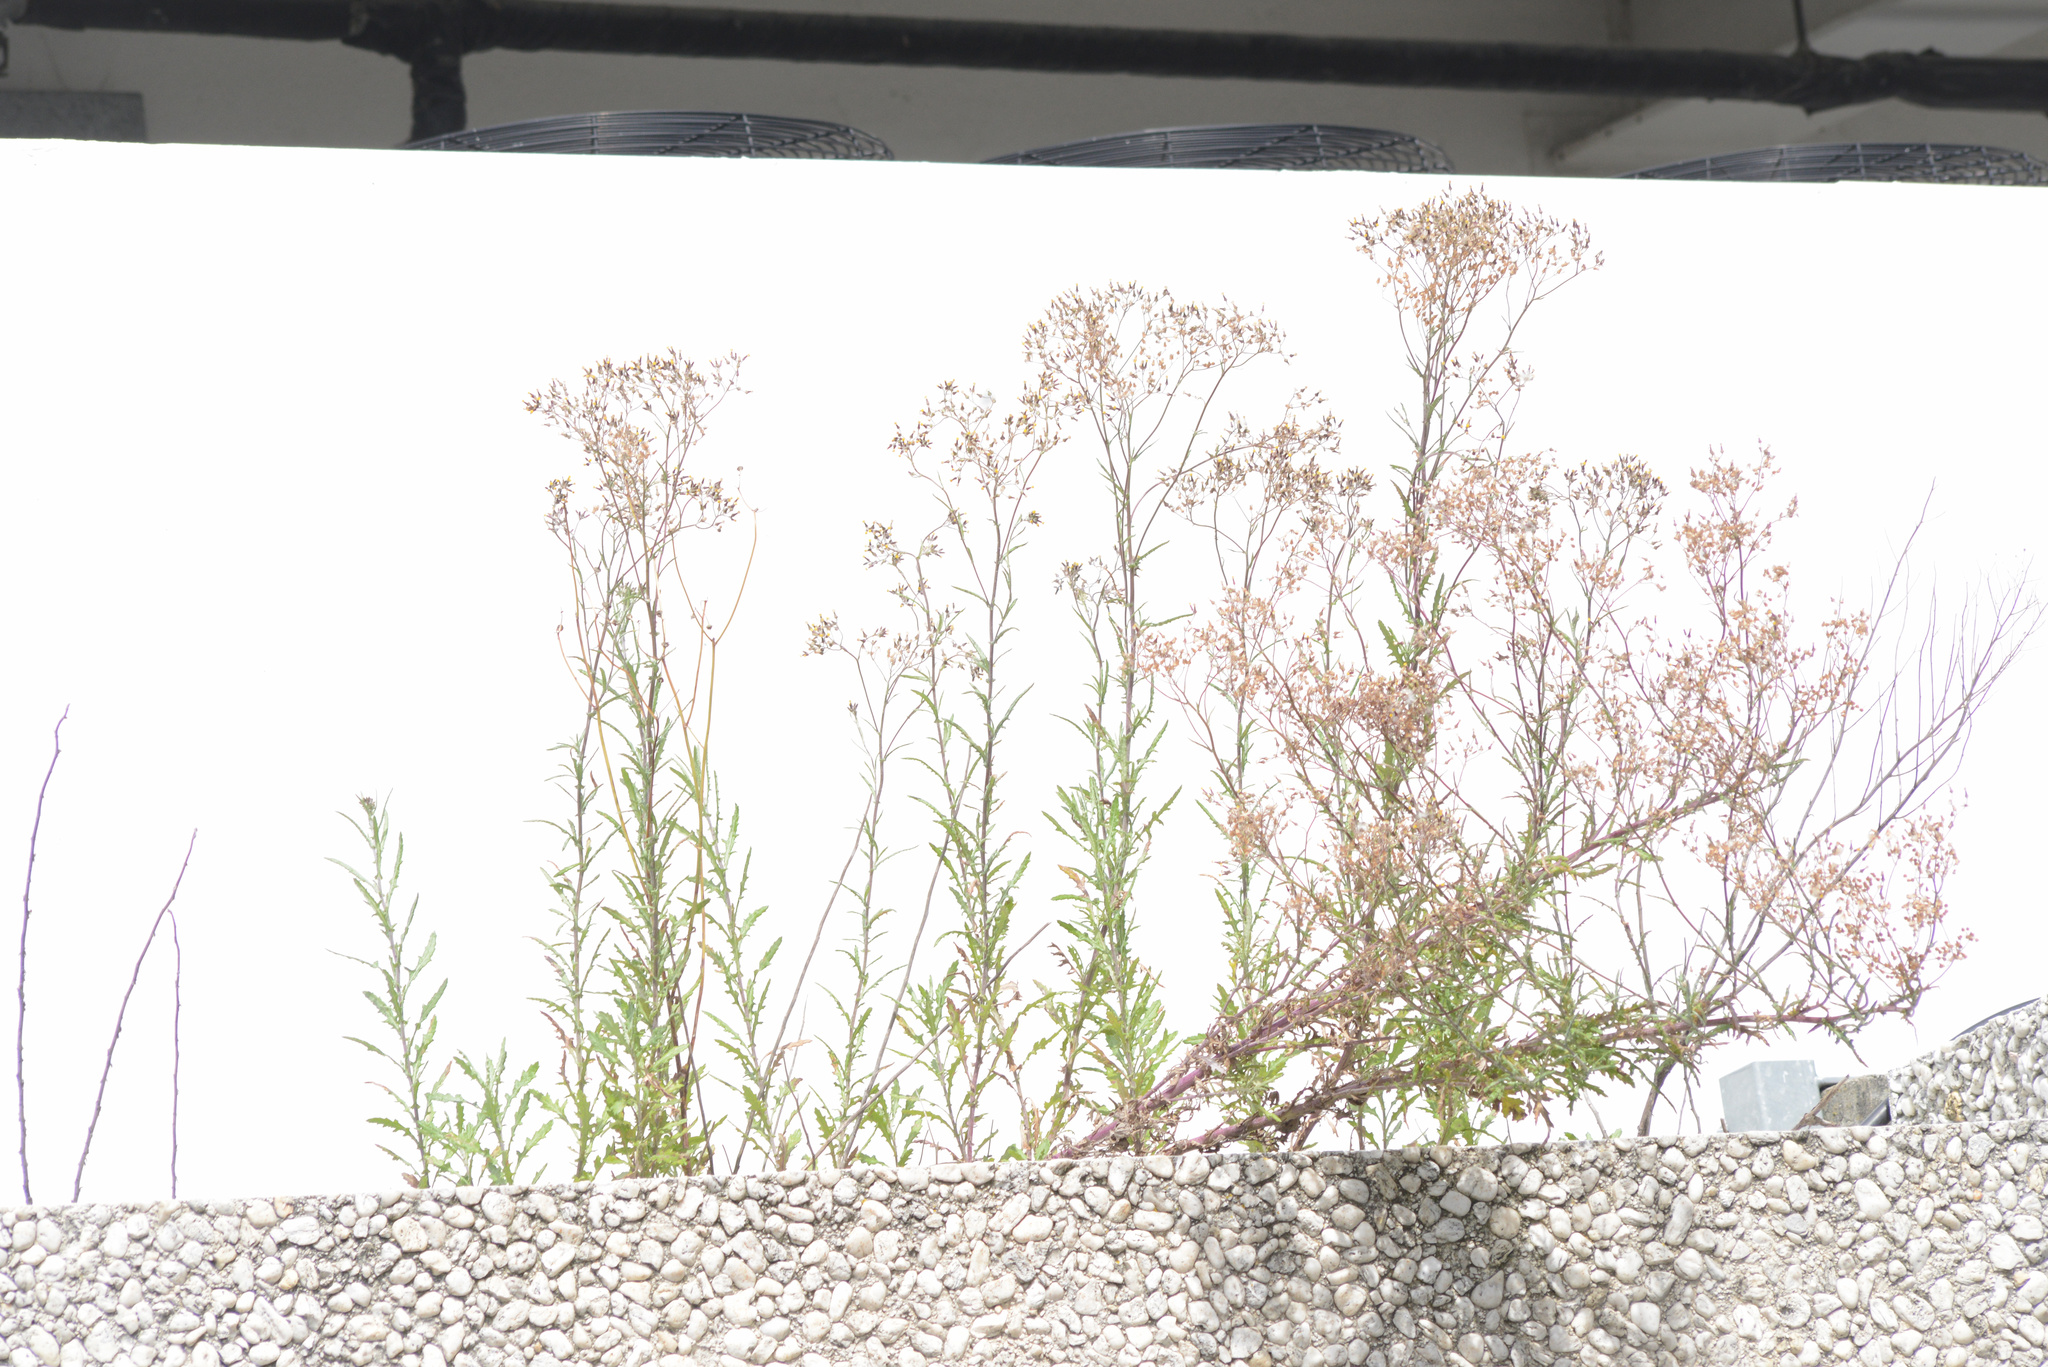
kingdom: Plantae
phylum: Tracheophyta
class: Magnoliopsida
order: Asterales
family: Asteraceae
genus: Senecio
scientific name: Senecio glomeratus
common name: Cutleaf burnweed
